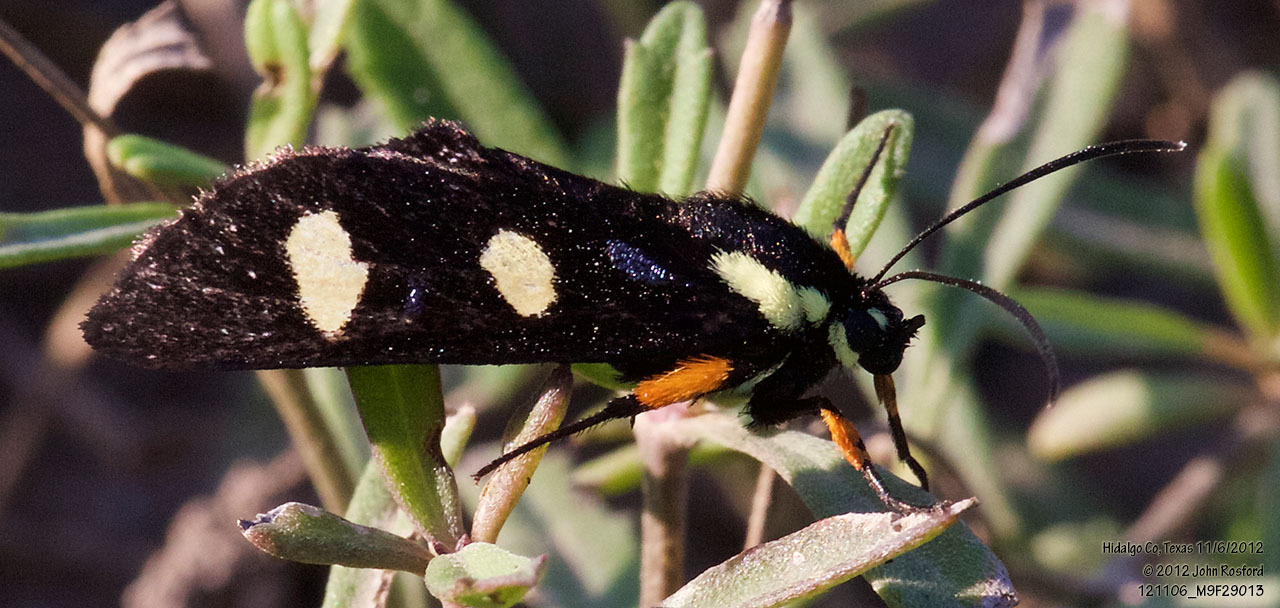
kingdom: Animalia
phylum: Arthropoda
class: Insecta
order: Lepidoptera
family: Noctuidae
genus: Alypia
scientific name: Alypia disparata
